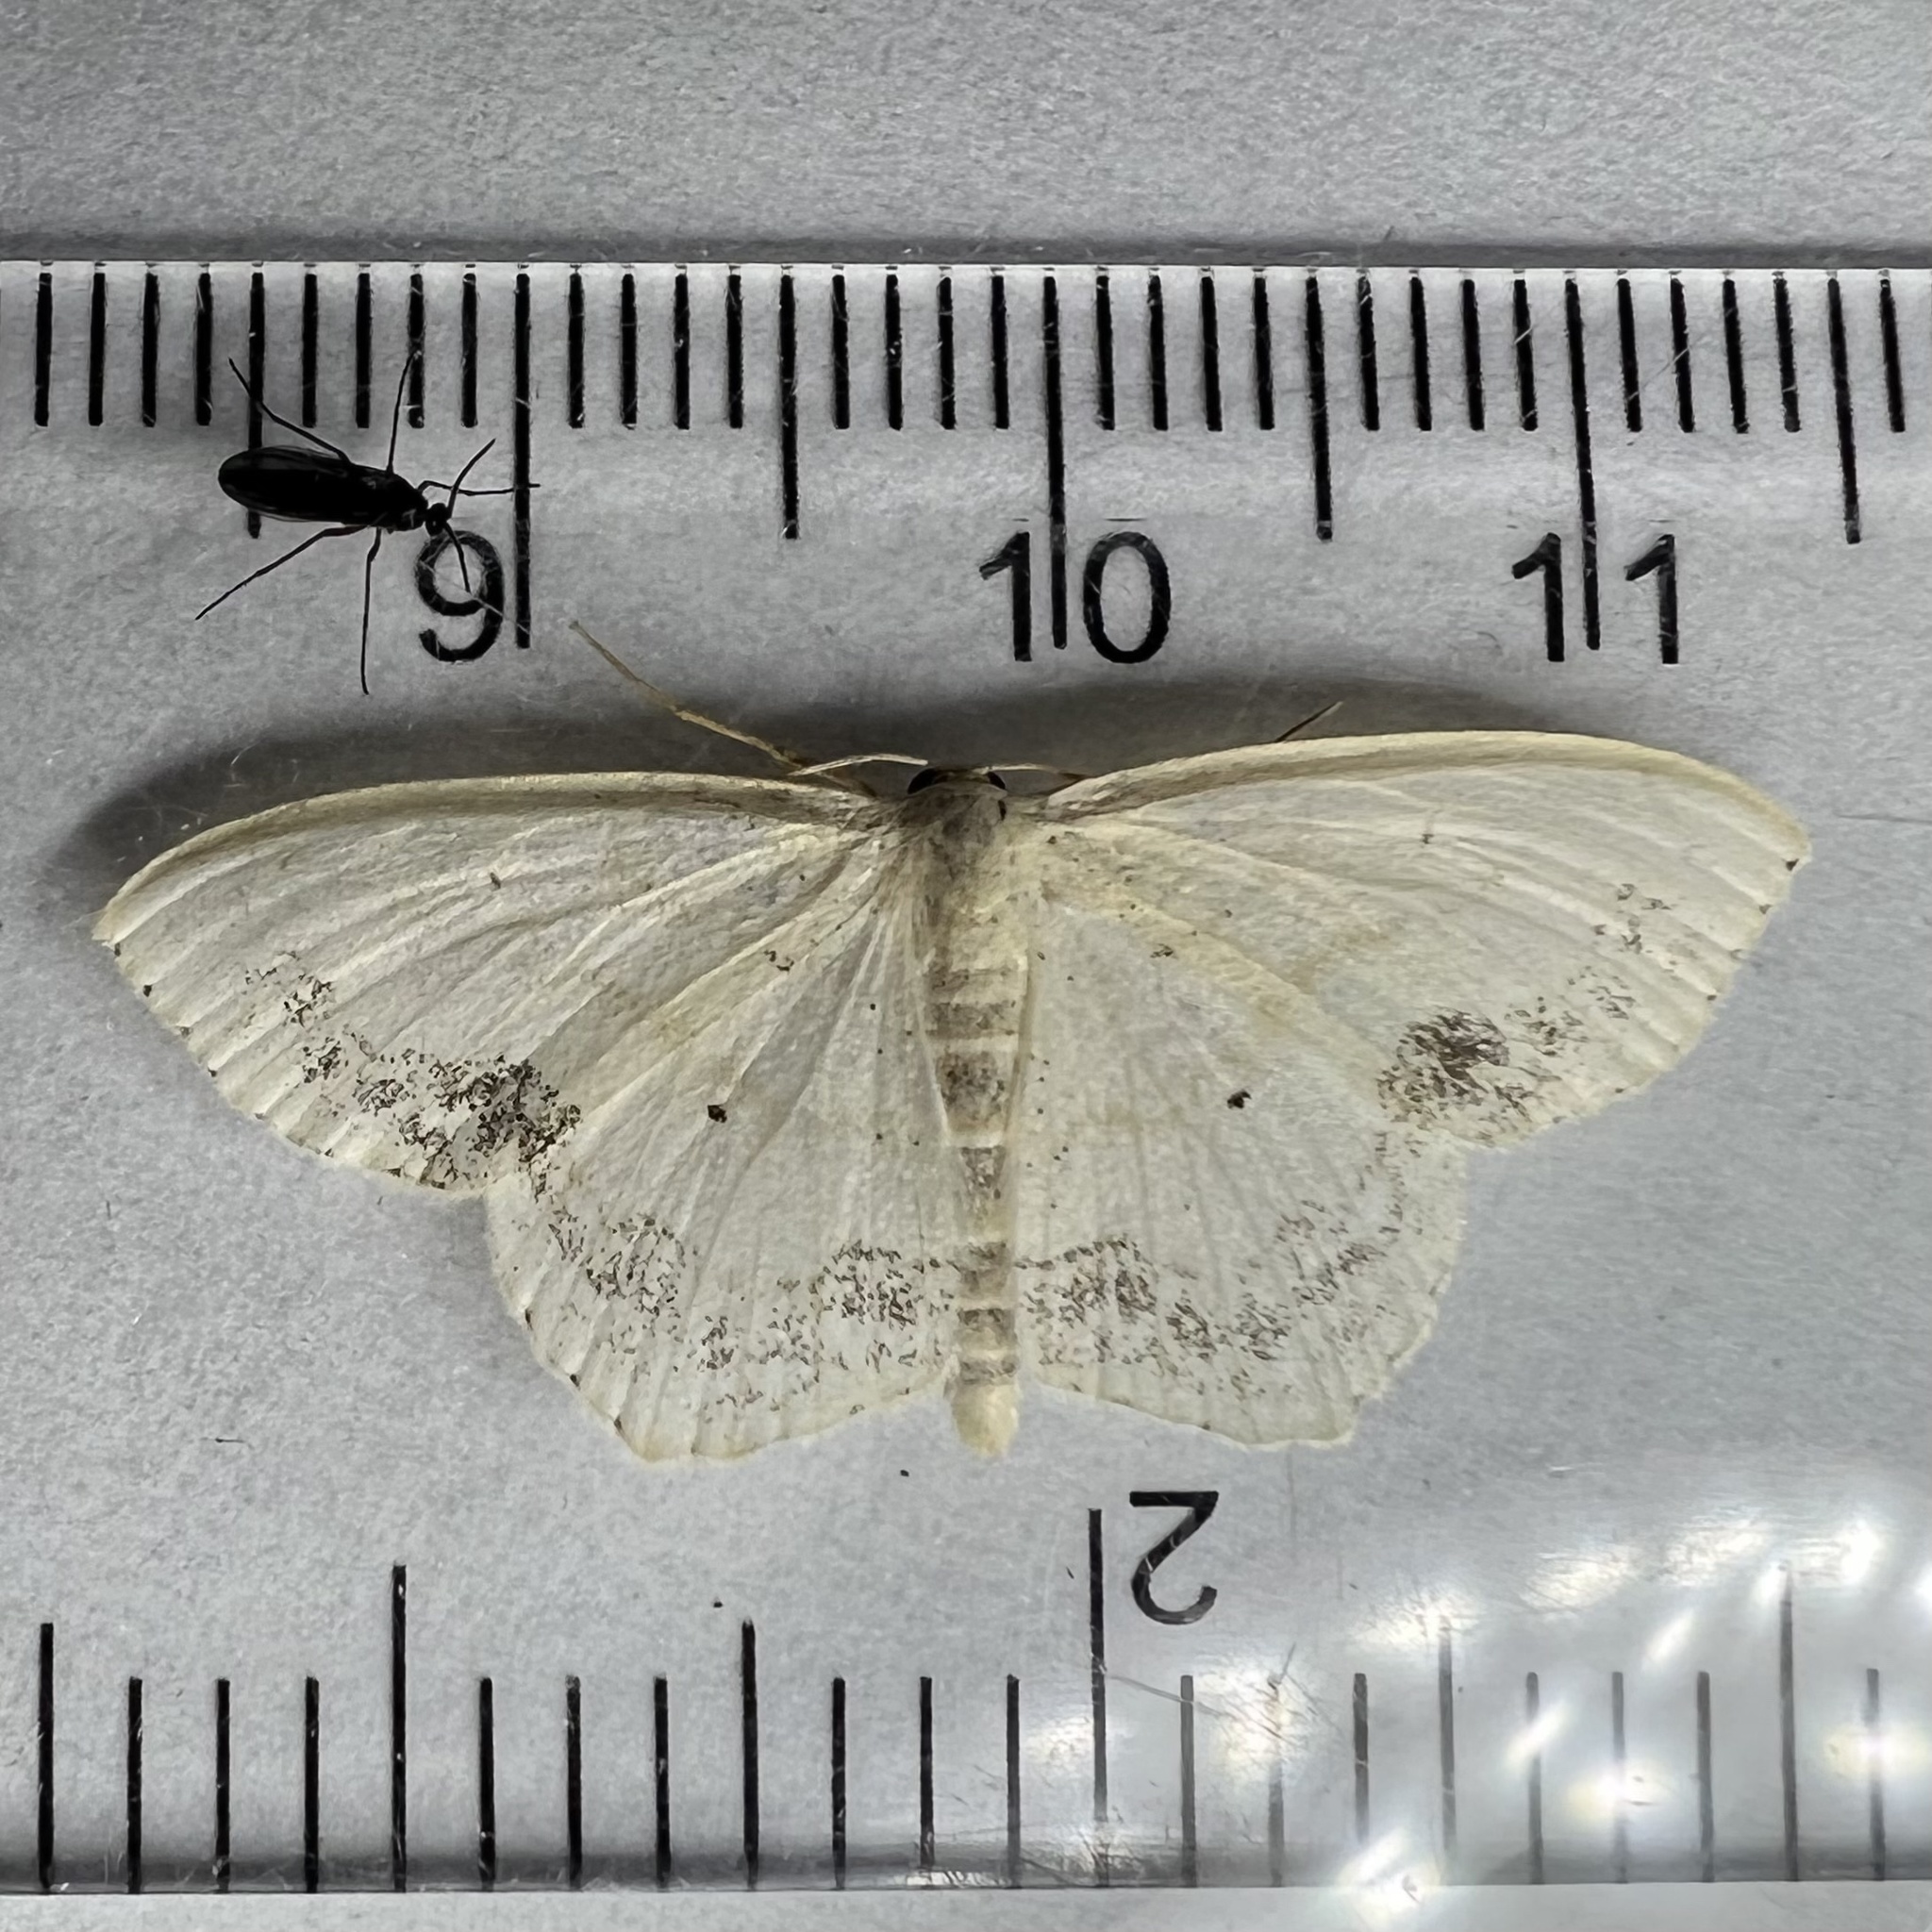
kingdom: Animalia
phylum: Arthropoda
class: Insecta
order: Lepidoptera
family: Geometridae
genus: Scopula
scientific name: Scopula limboundata
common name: Large lace border
